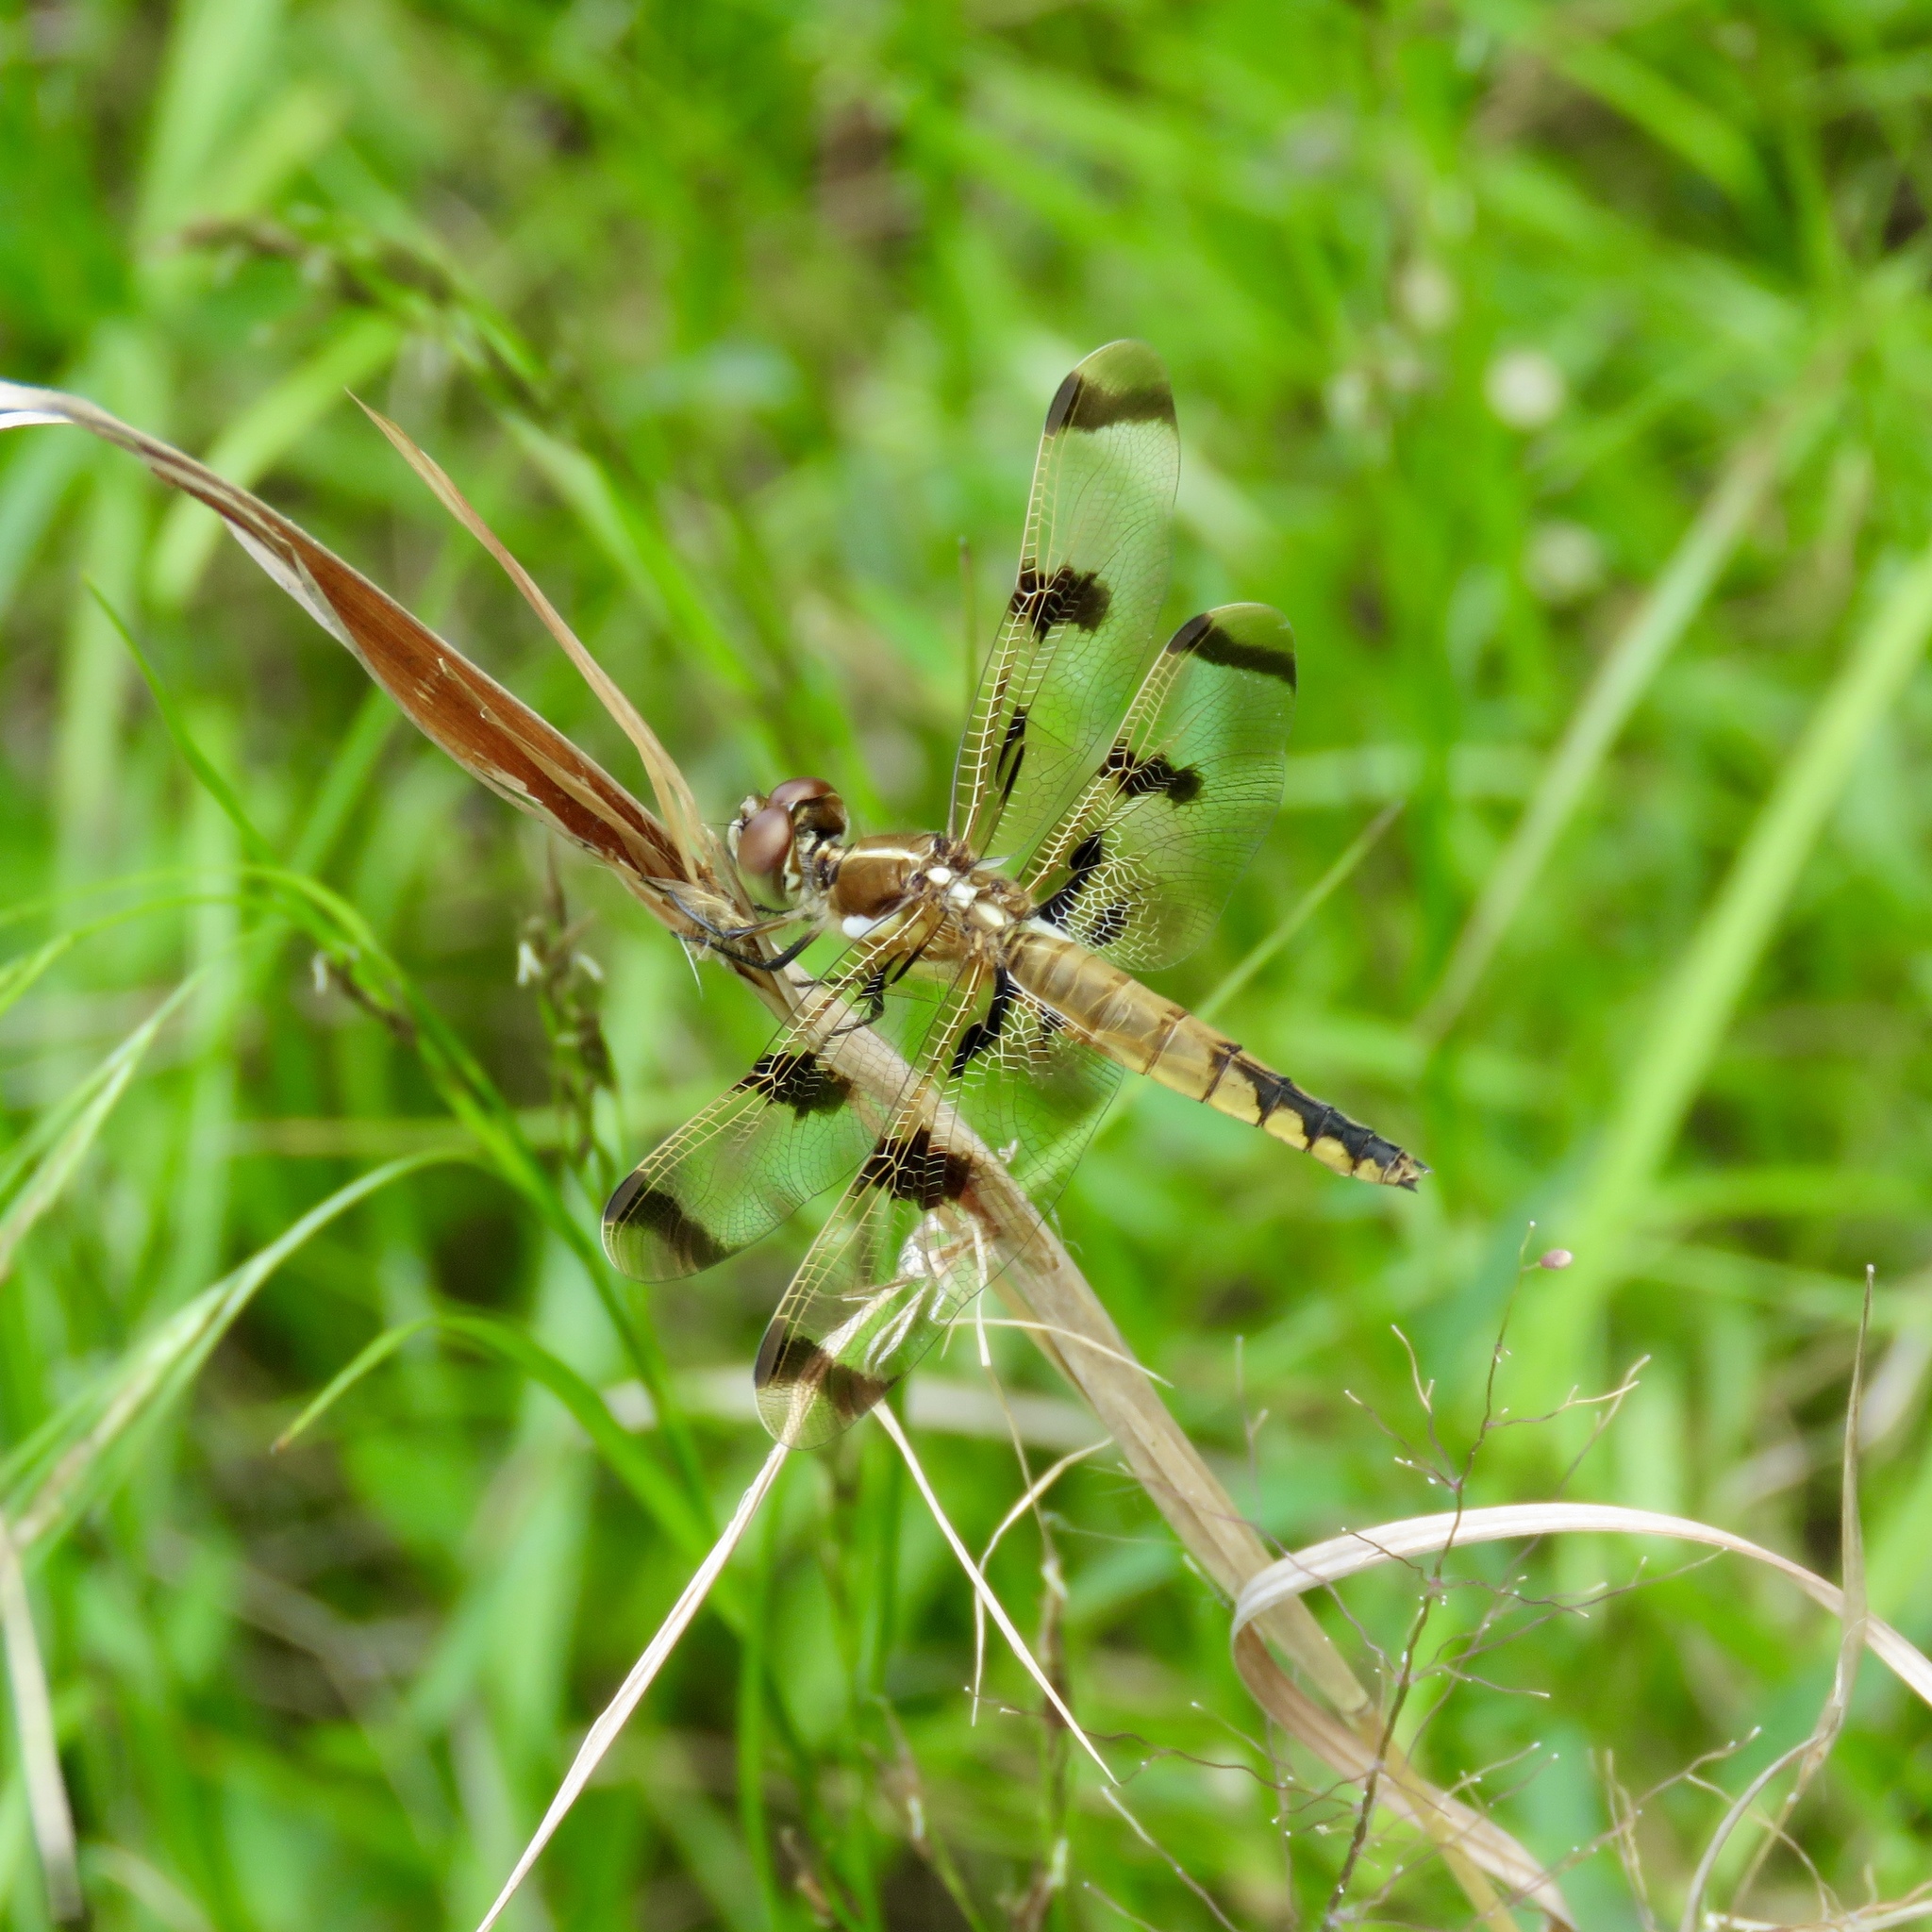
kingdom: Animalia
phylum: Arthropoda
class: Insecta
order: Odonata
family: Libellulidae
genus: Libellula
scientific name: Libellula semifasciata
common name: Painted skimmer
